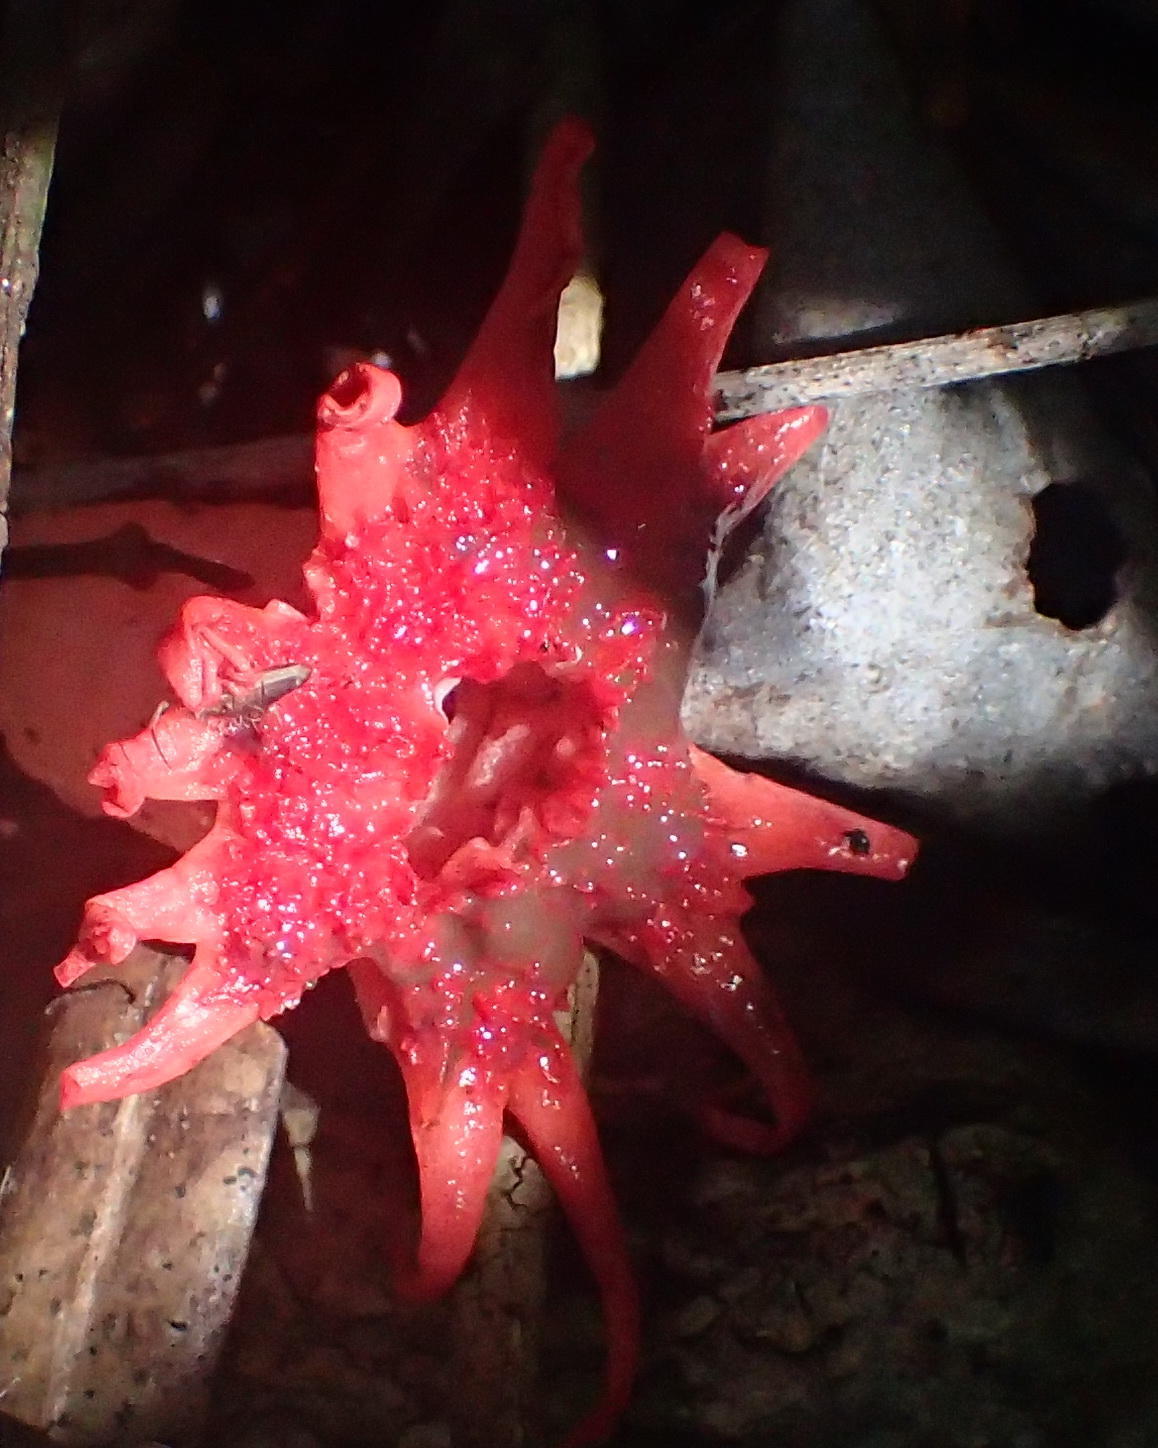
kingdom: Fungi
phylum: Basidiomycota
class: Agaricomycetes
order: Phallales
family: Phallaceae
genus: Aseroe
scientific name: Aseroe rubra
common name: Starfish fungus
